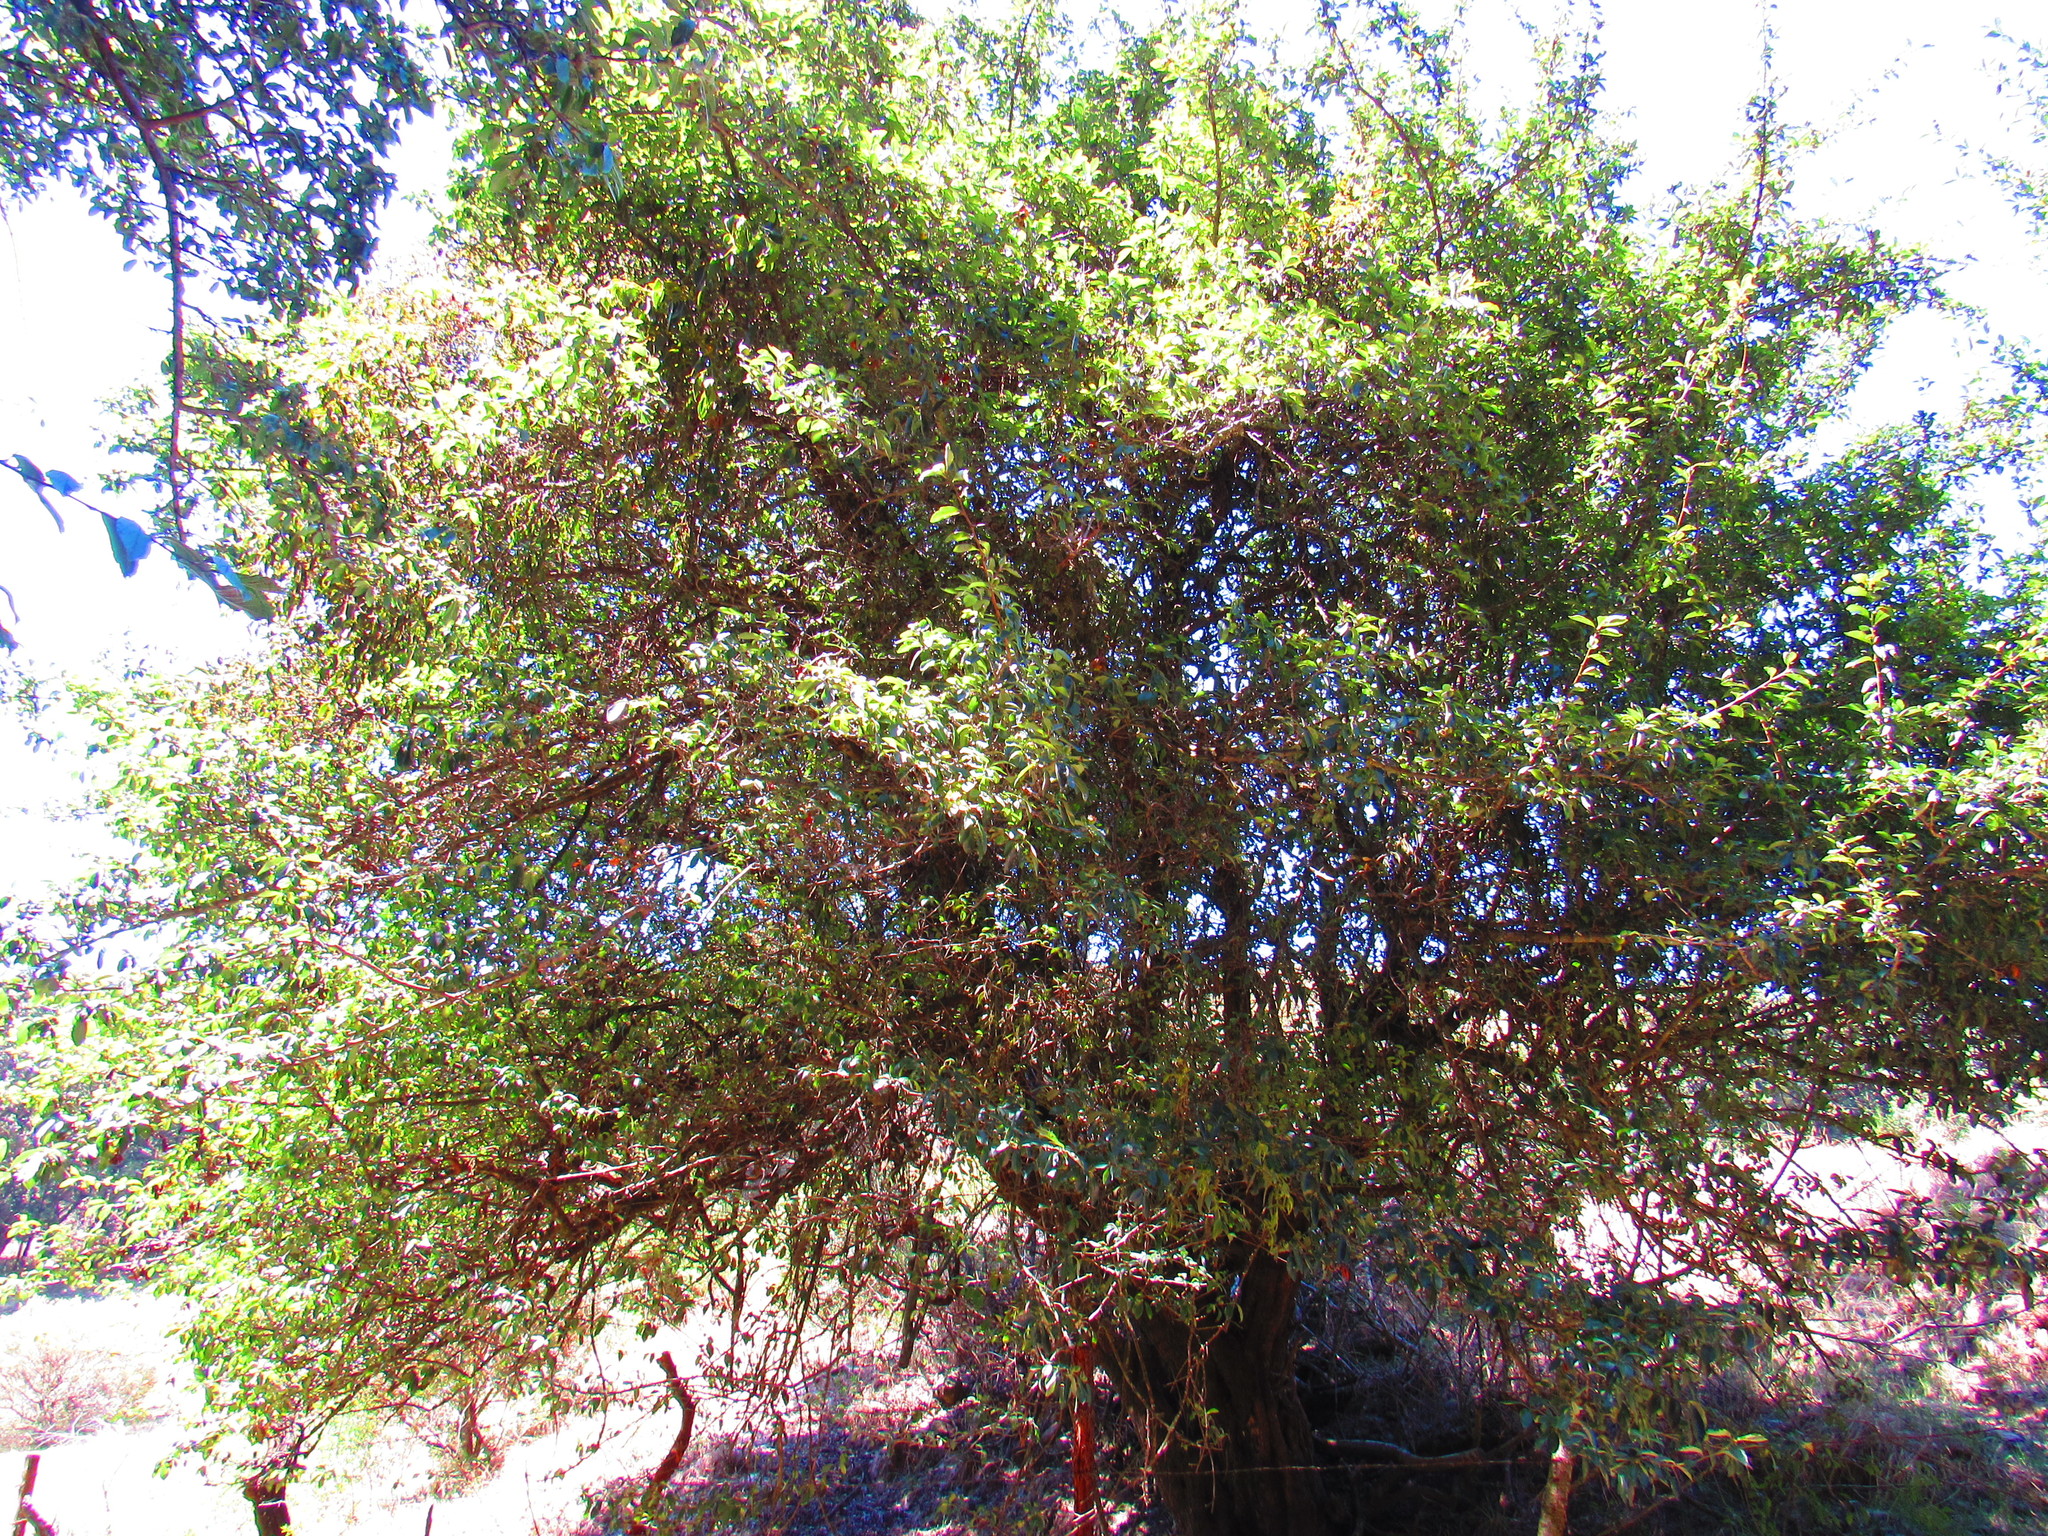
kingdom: Plantae
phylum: Tracheophyta
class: Magnoliopsida
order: Rosales
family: Rosaceae
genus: Crataegus
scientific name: Crataegus mexicana
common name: Mexican hawthorn
